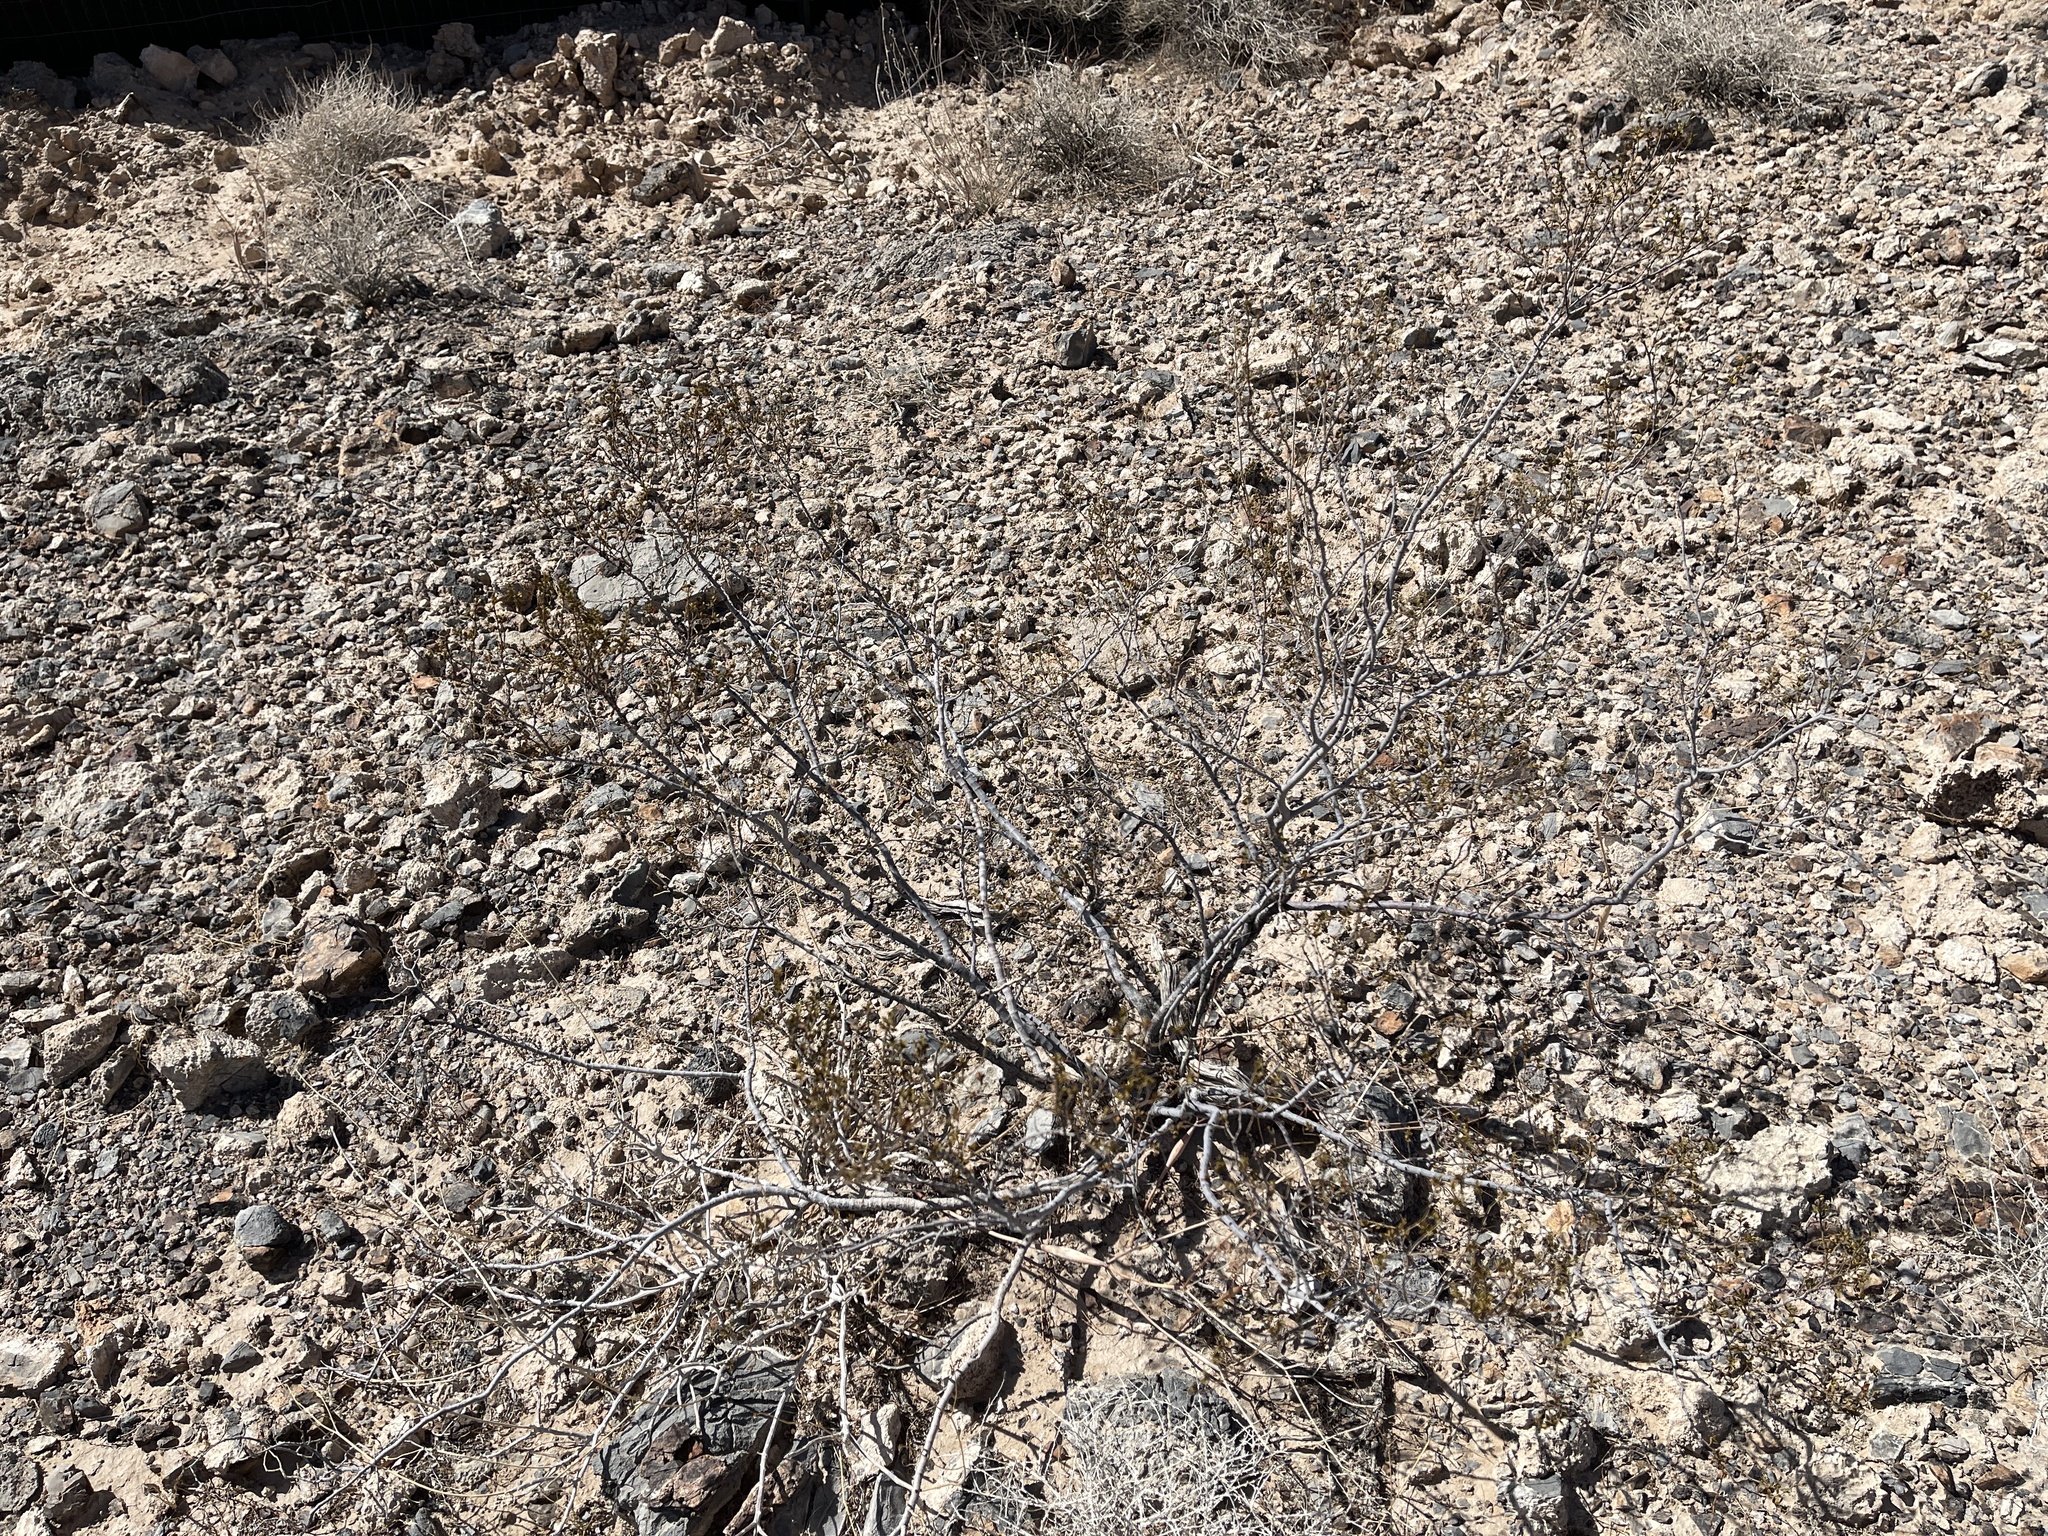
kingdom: Plantae
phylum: Tracheophyta
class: Magnoliopsida
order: Zygophyllales
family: Zygophyllaceae
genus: Larrea
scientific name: Larrea tridentata
